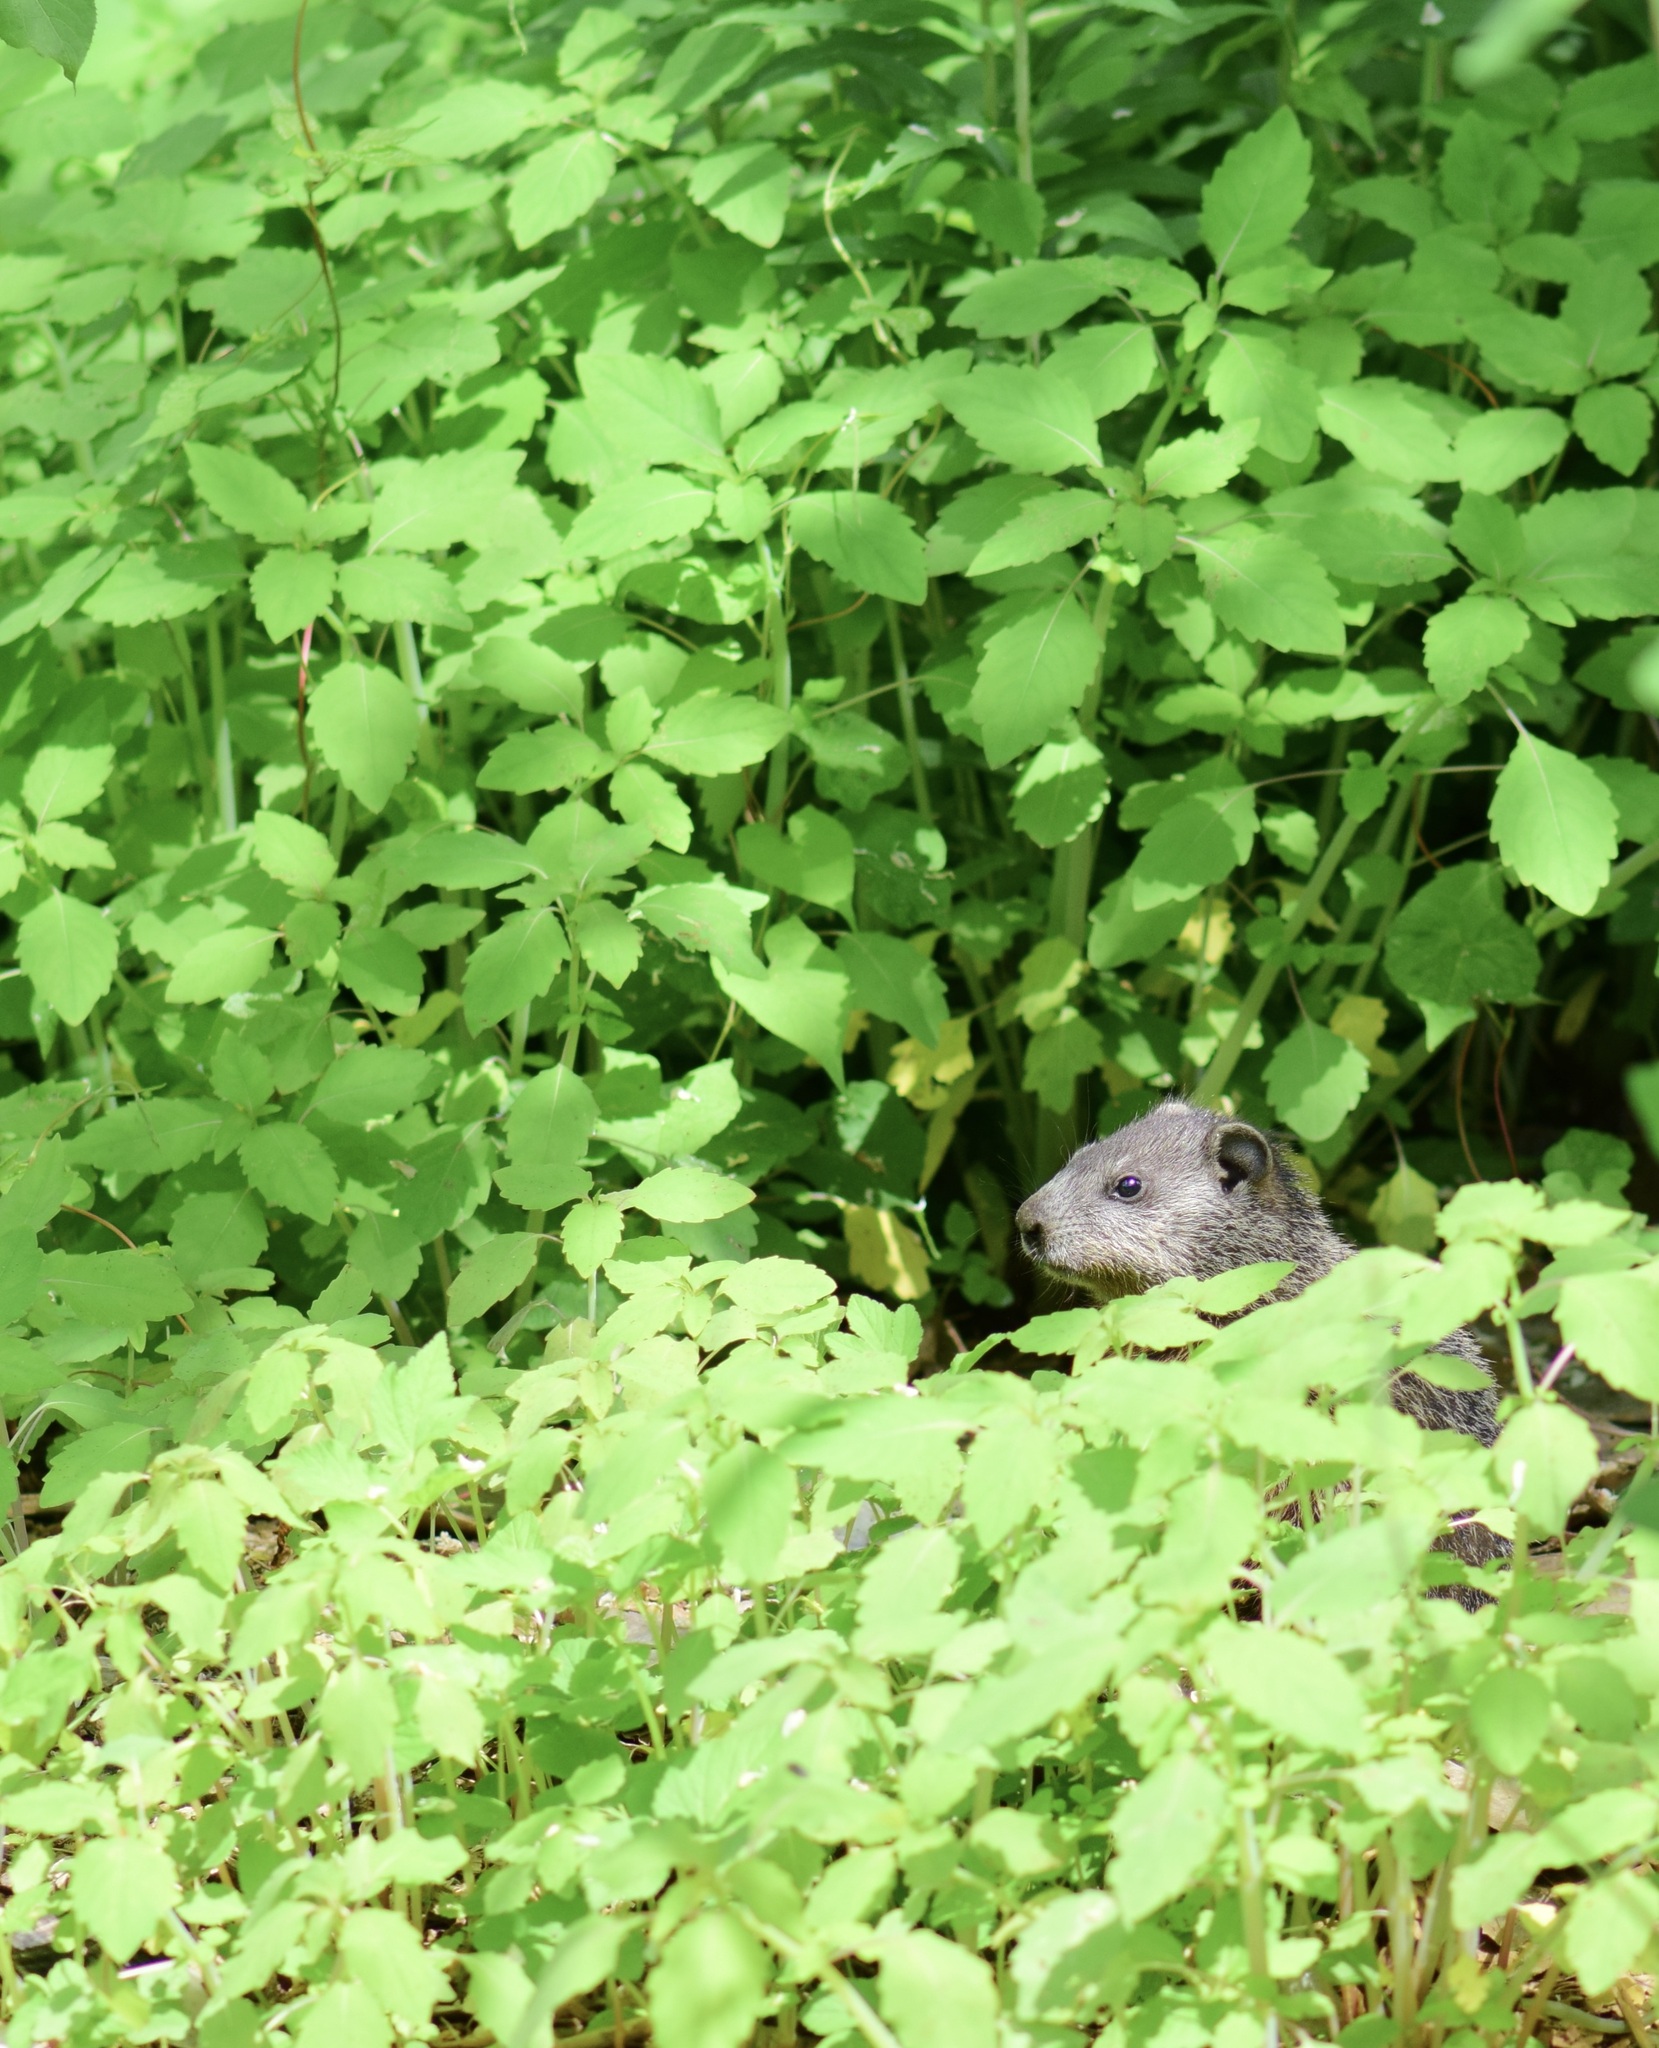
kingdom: Animalia
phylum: Chordata
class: Mammalia
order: Rodentia
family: Sciuridae
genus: Marmota
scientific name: Marmota monax
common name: Groundhog
